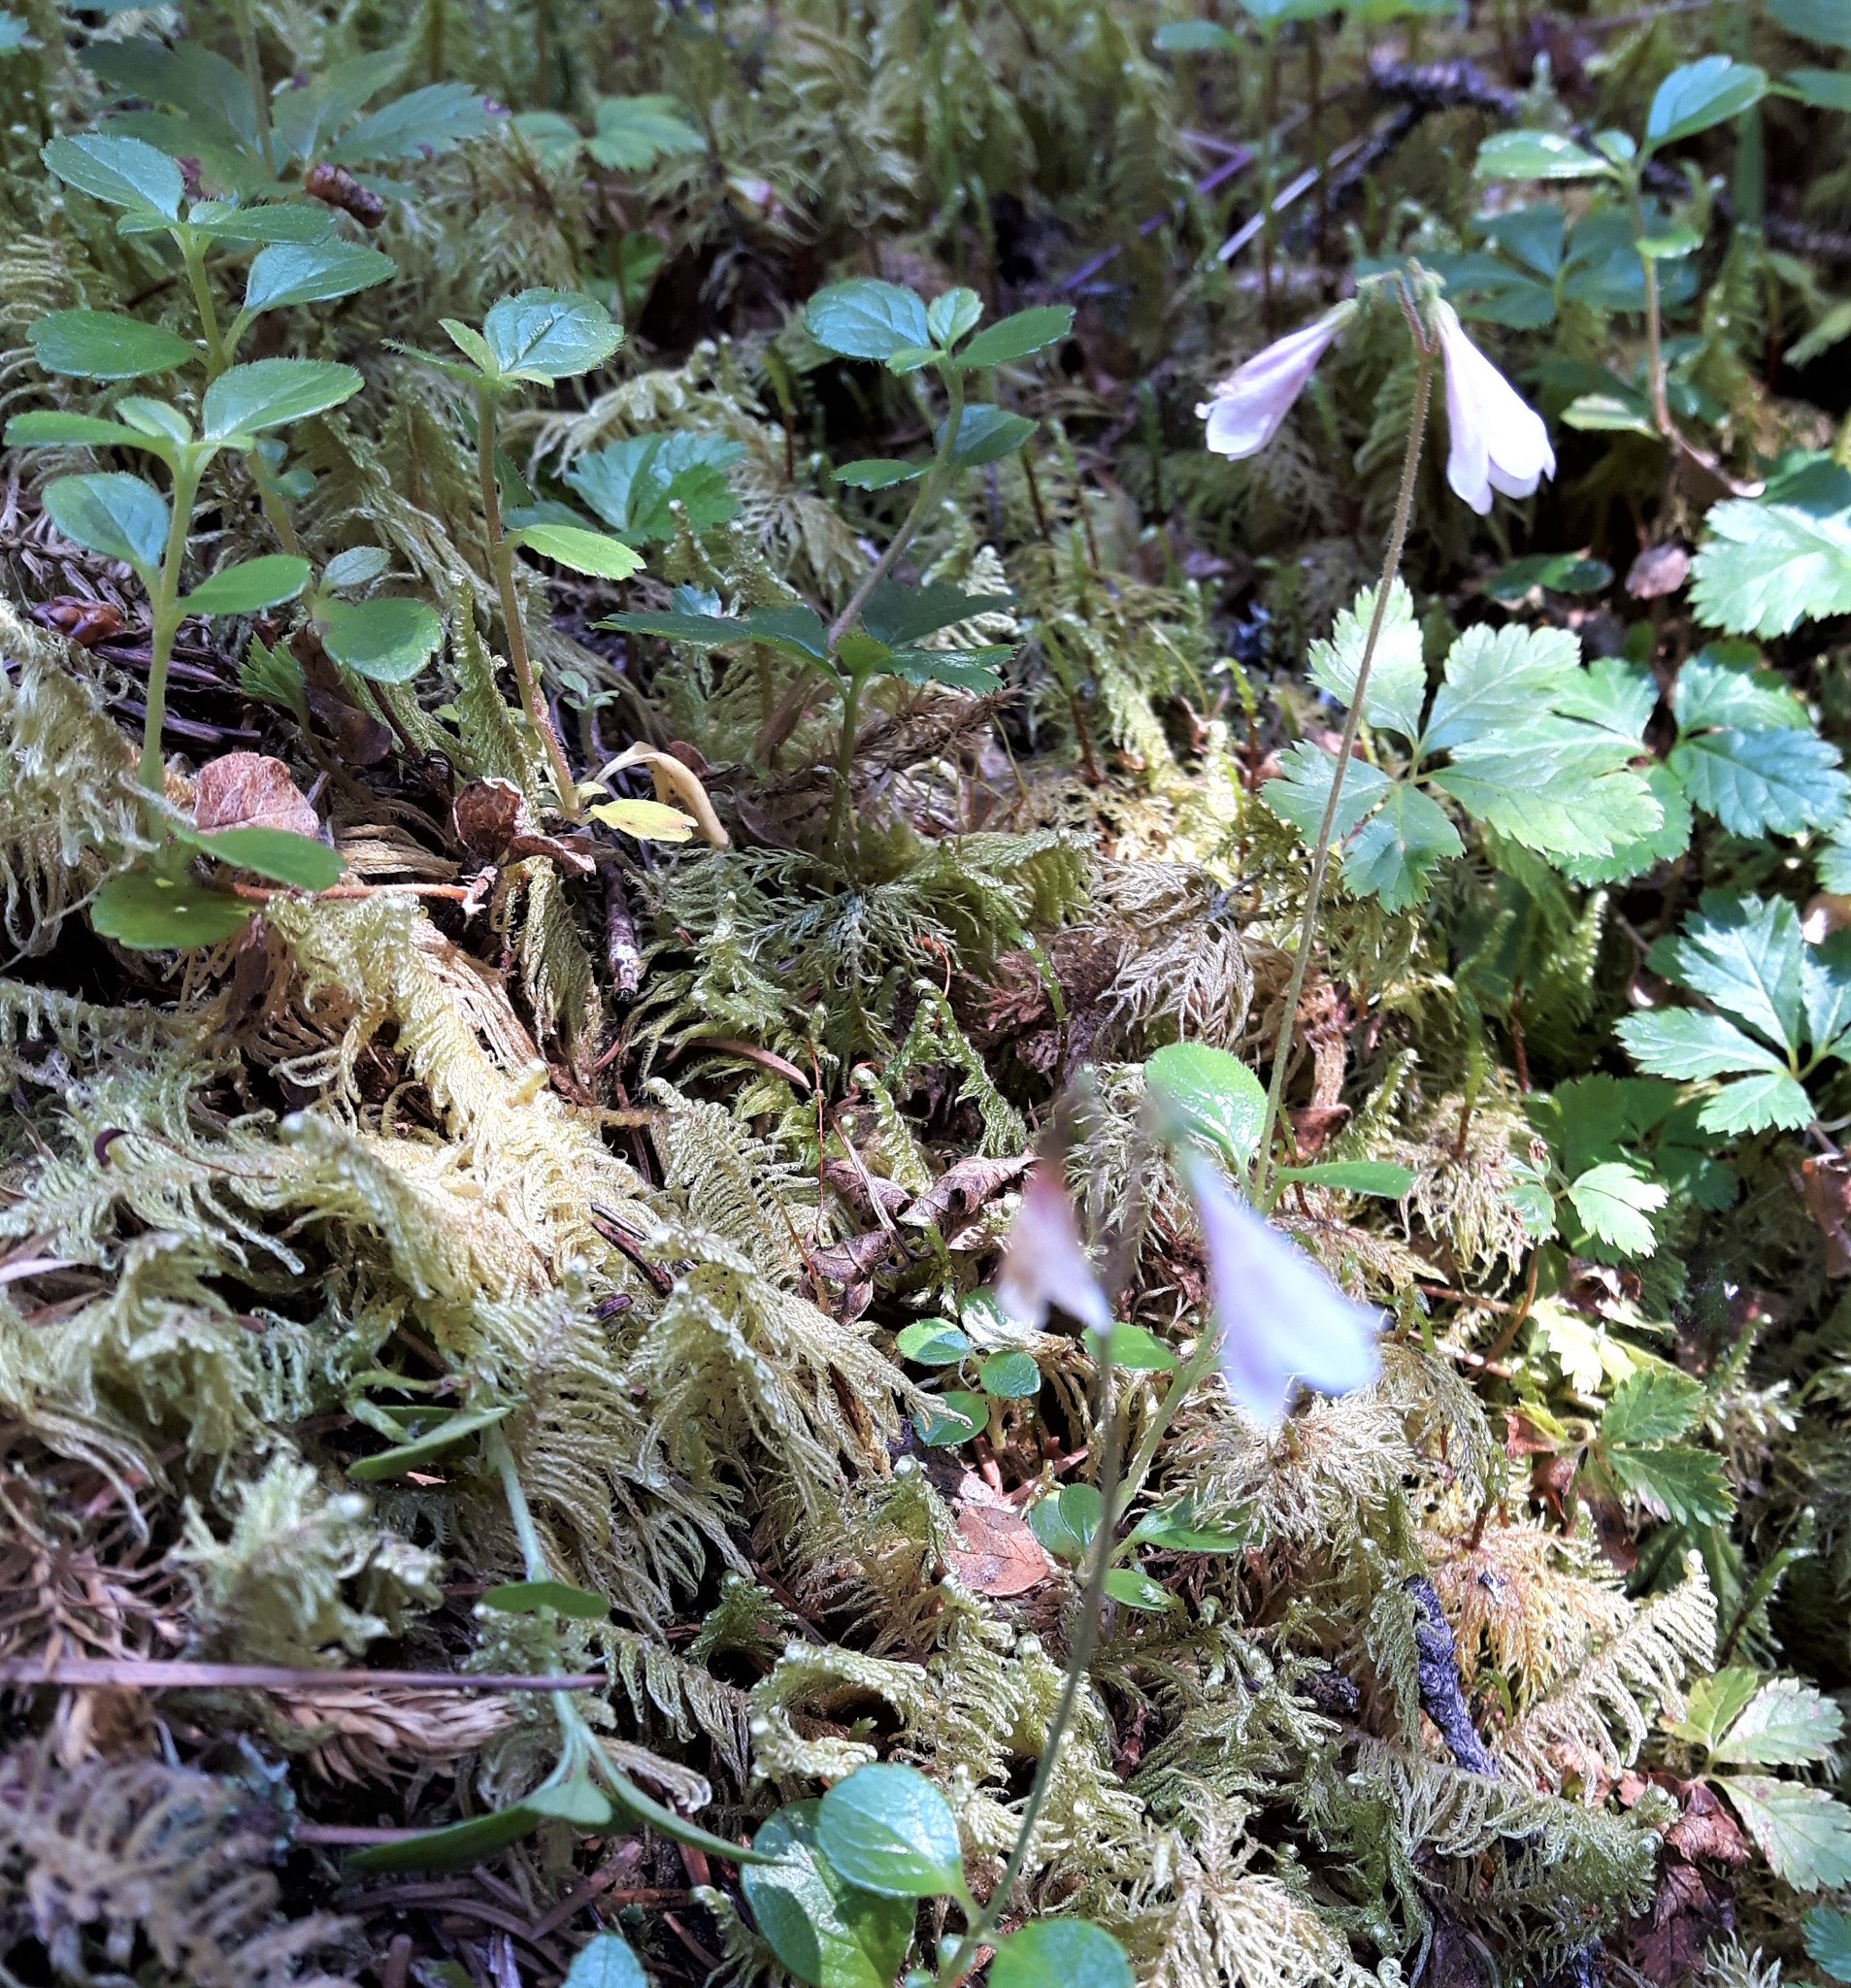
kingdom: Plantae
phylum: Tracheophyta
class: Magnoliopsida
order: Dipsacales
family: Caprifoliaceae
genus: Linnaea
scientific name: Linnaea borealis
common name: Twinflower
